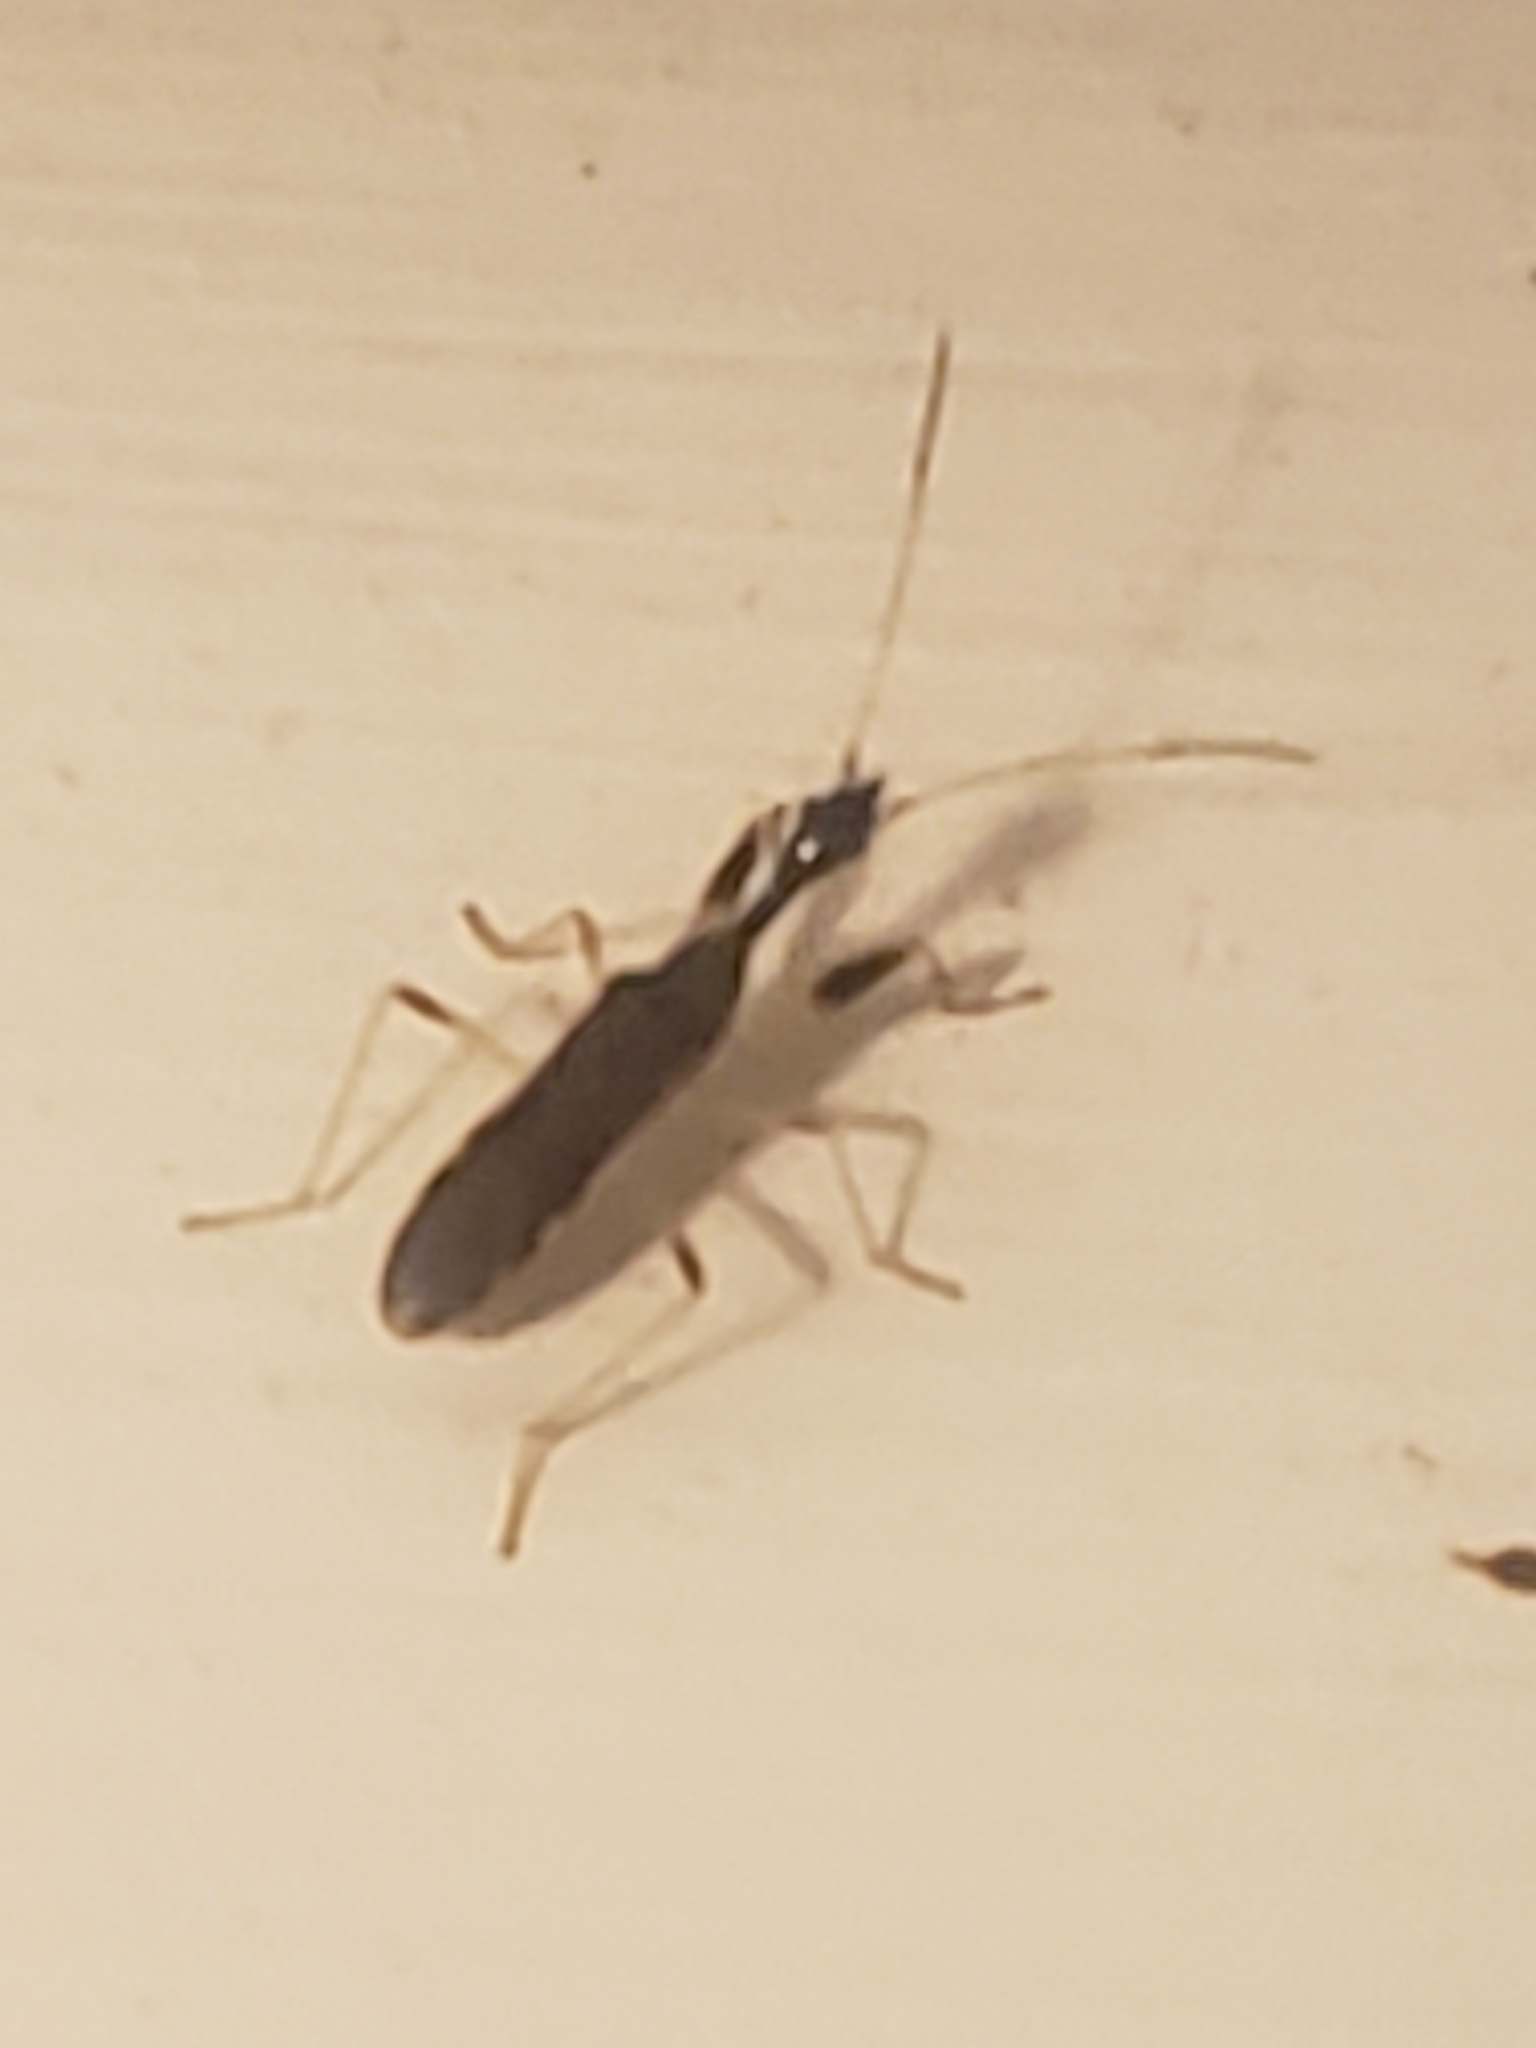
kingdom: Animalia
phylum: Arthropoda
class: Insecta
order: Hemiptera
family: Rhyparochromidae
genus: Myodocha
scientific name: Myodocha serripes
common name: Long-necked seed bug
